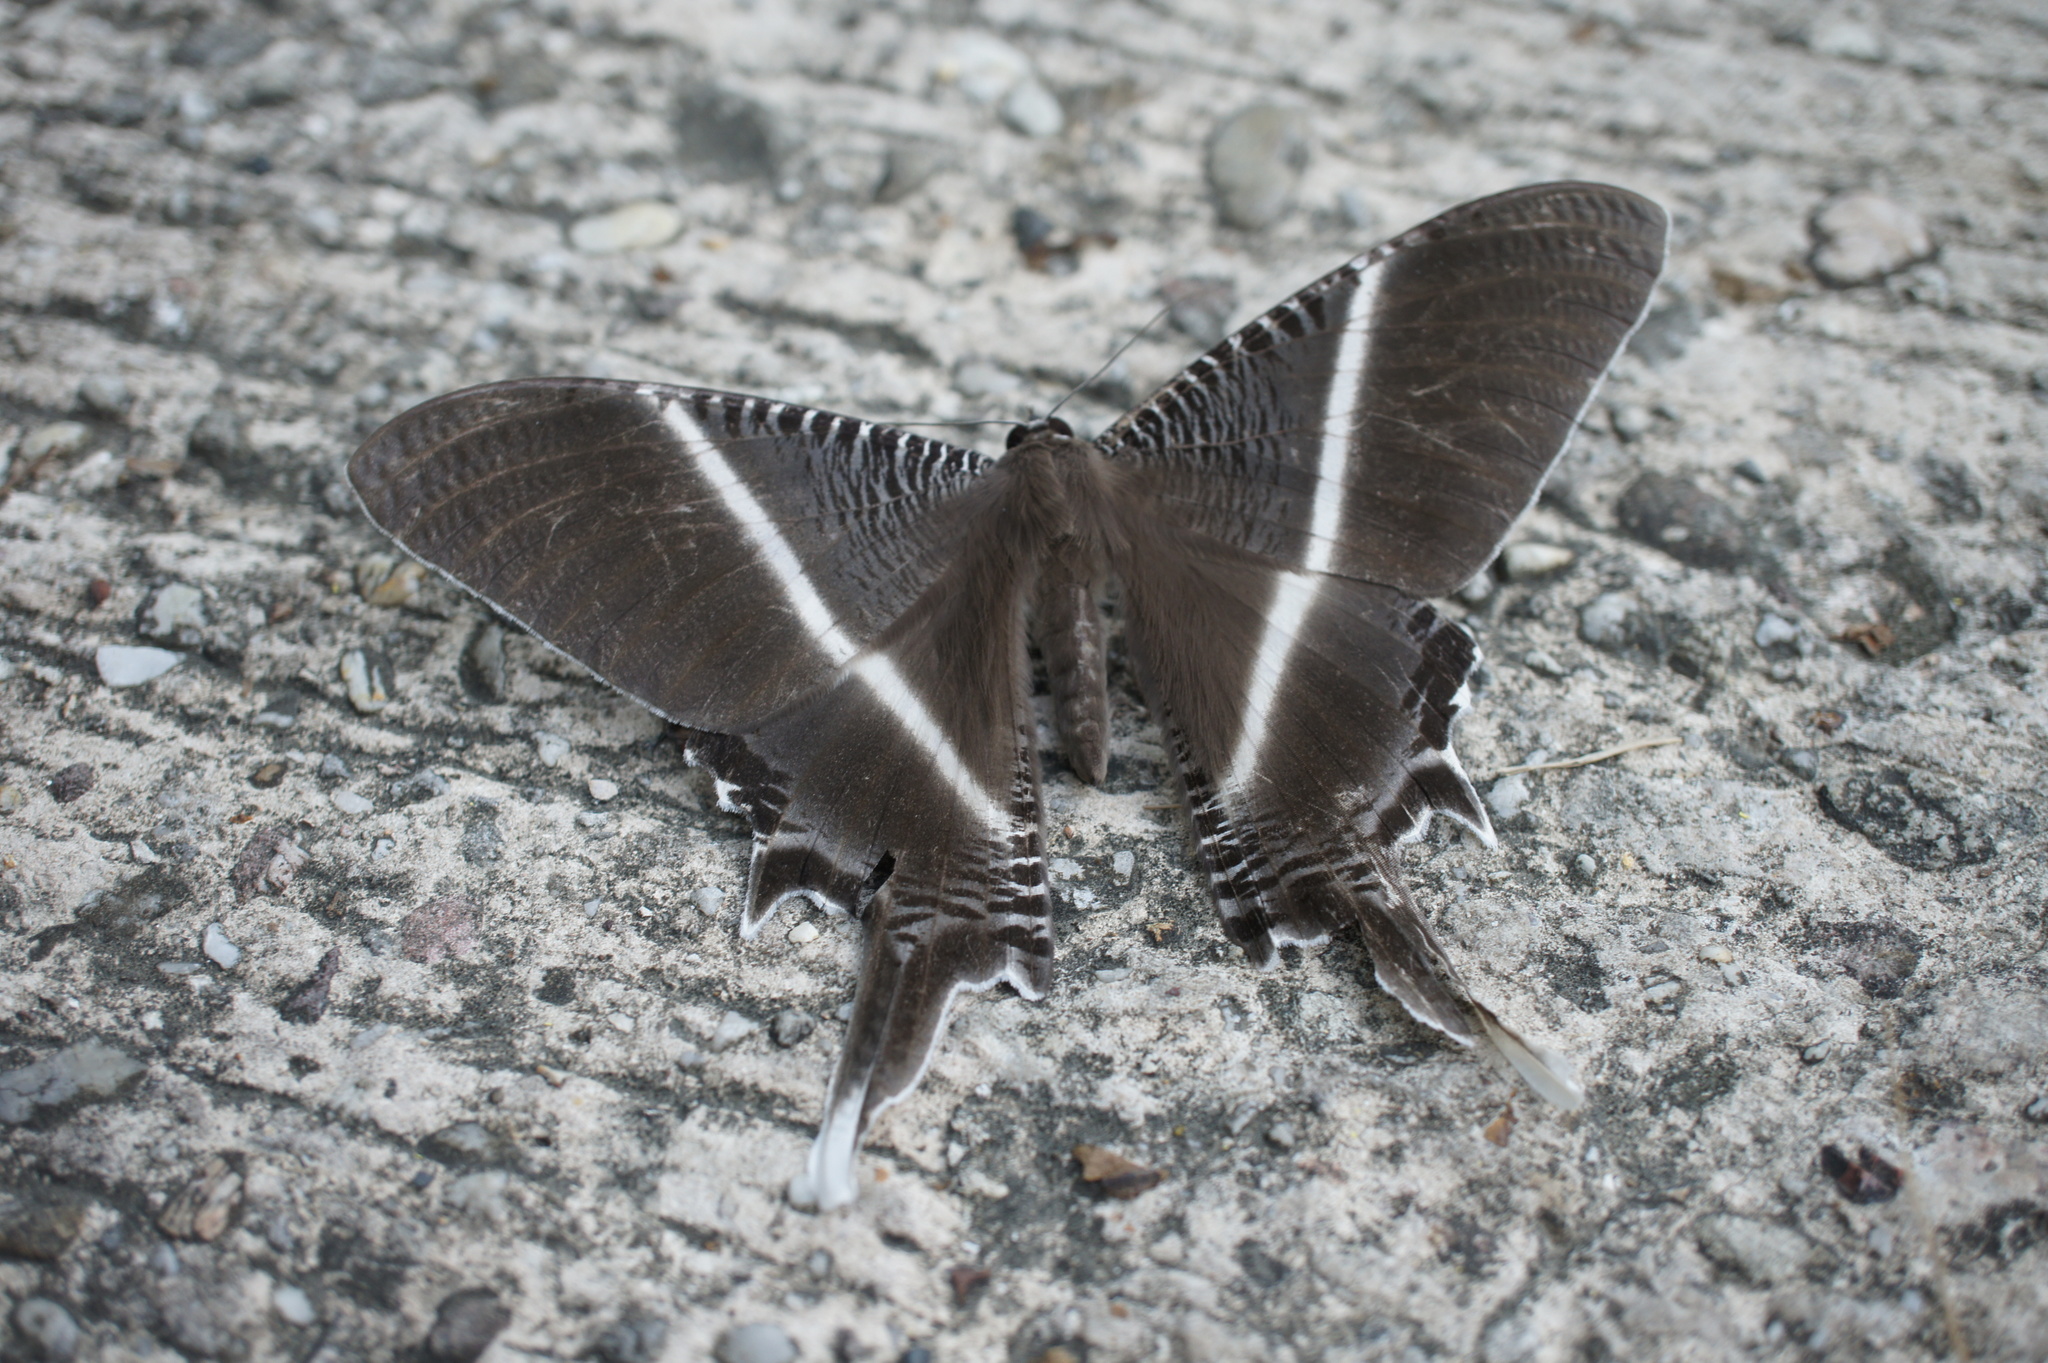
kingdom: Animalia
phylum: Arthropoda
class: Insecta
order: Lepidoptera
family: Uraniidae
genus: Lyssa
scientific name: Lyssa menoetius
